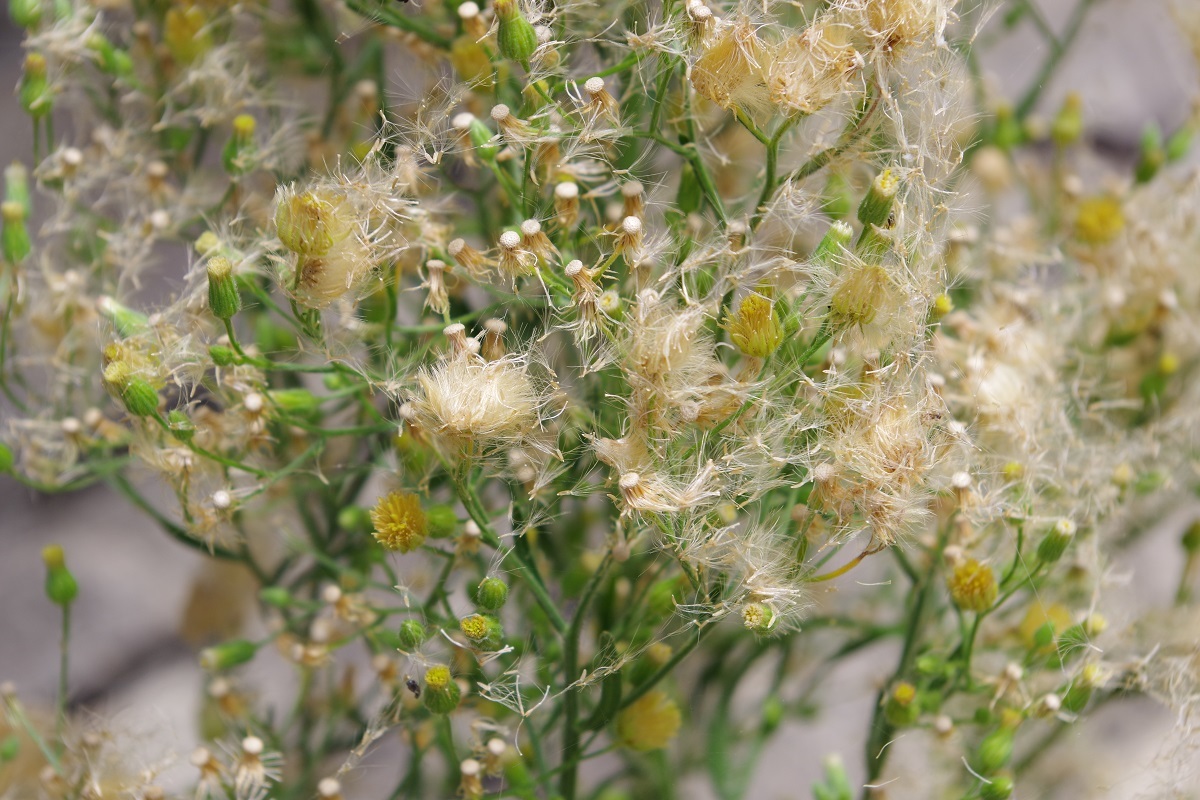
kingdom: Plantae
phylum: Tracheophyta
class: Magnoliopsida
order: Asterales
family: Asteraceae
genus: Erigeron
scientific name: Erigeron canadensis
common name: Canadian fleabane
